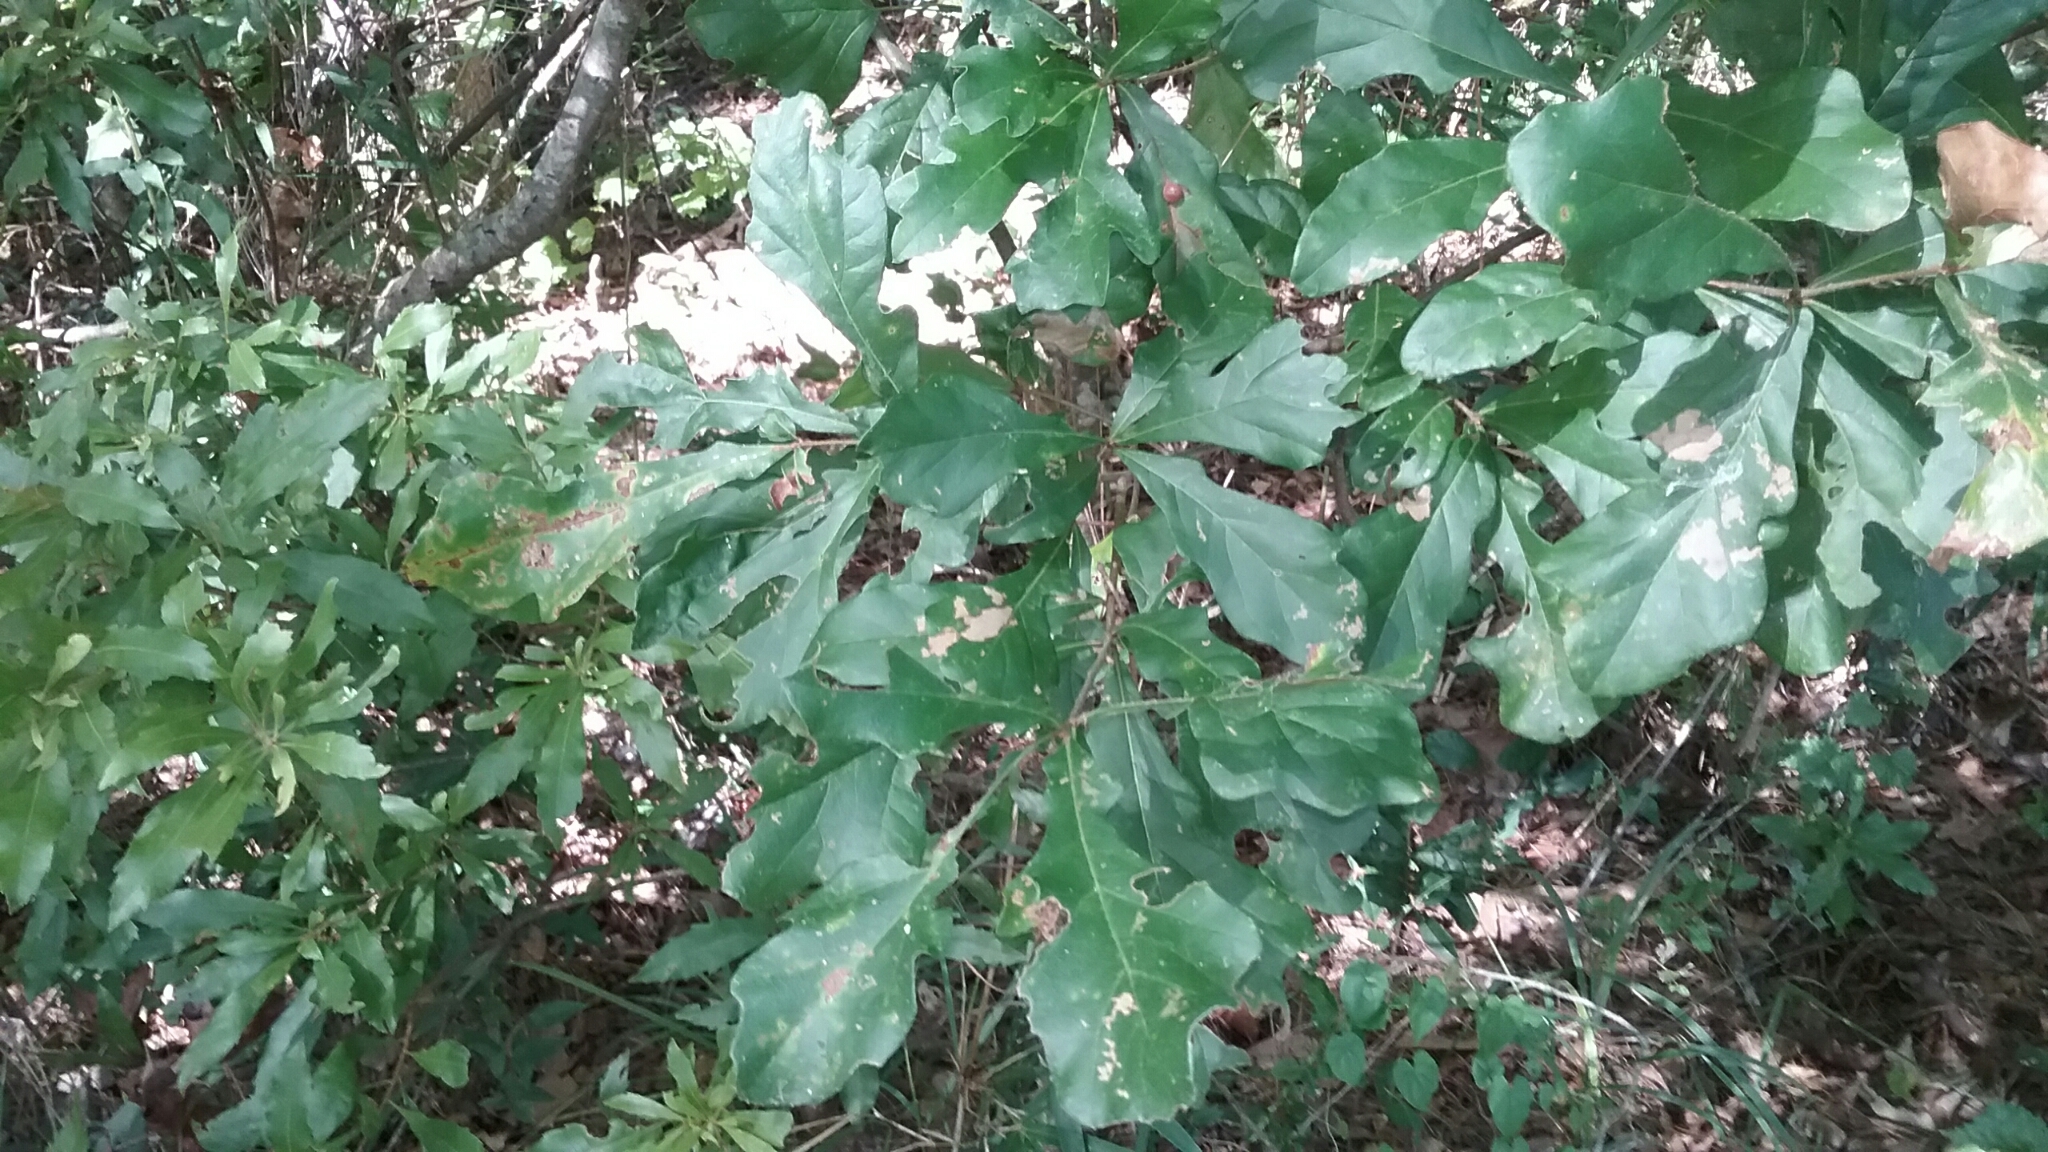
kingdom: Plantae
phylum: Tracheophyta
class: Magnoliopsida
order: Fagales
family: Fagaceae
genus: Quercus
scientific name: Quercus nigra
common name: Water oak
